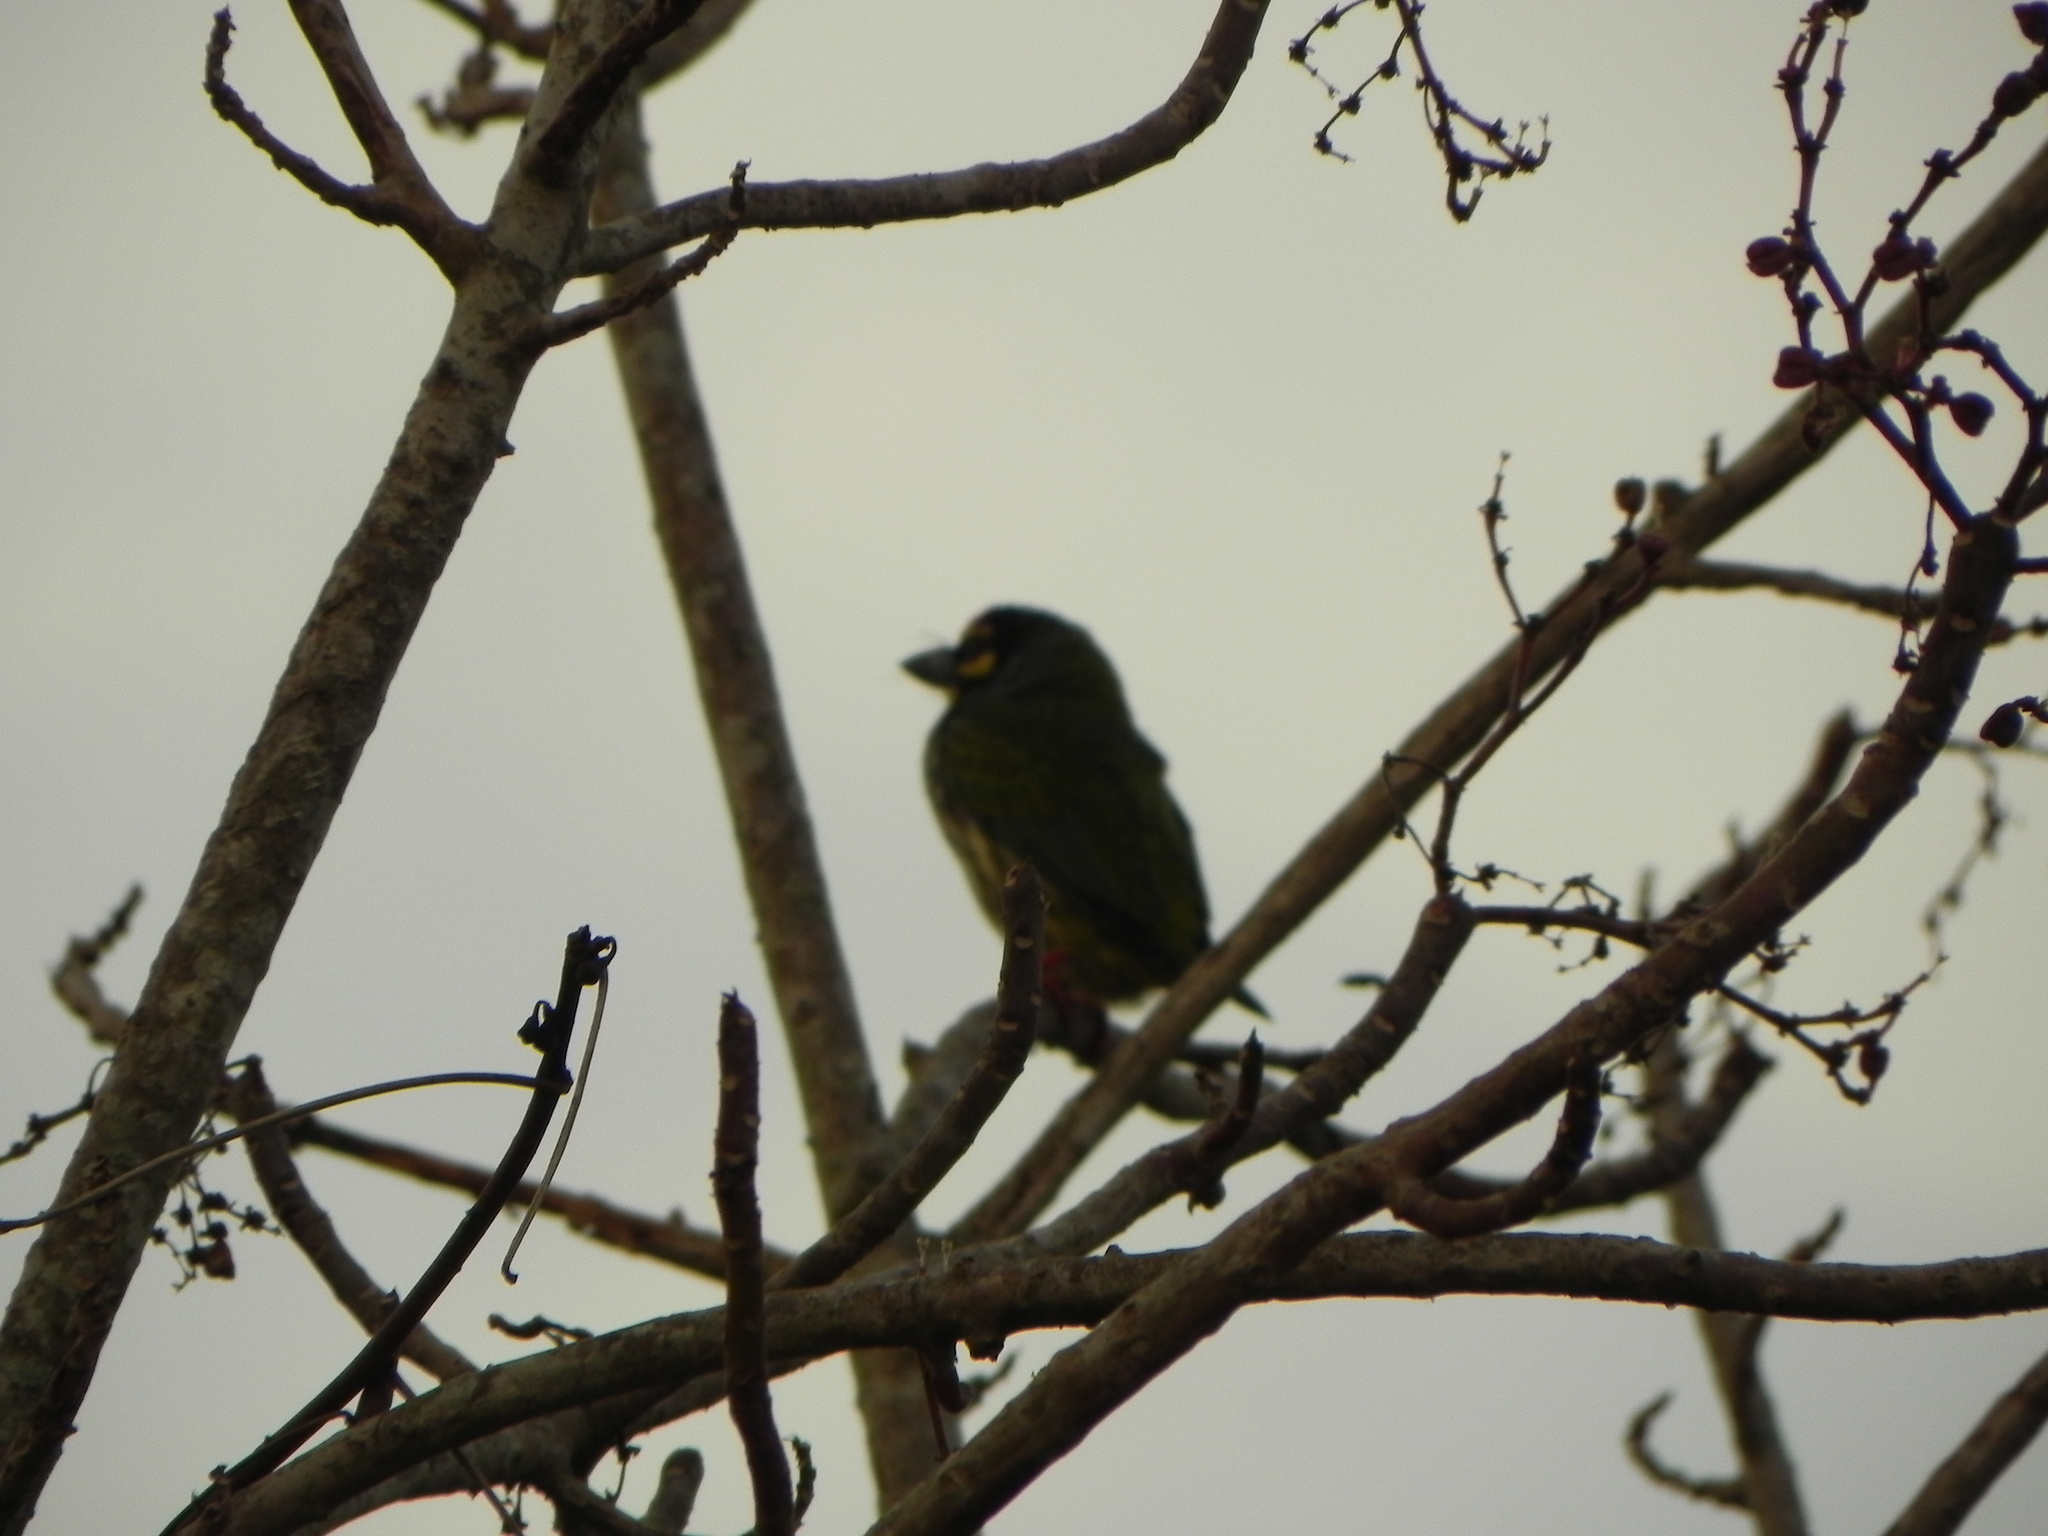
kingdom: Animalia
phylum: Chordata
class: Aves
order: Piciformes
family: Megalaimidae
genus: Psilopogon
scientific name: Psilopogon haemacephalus
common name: Coppersmith barbet
